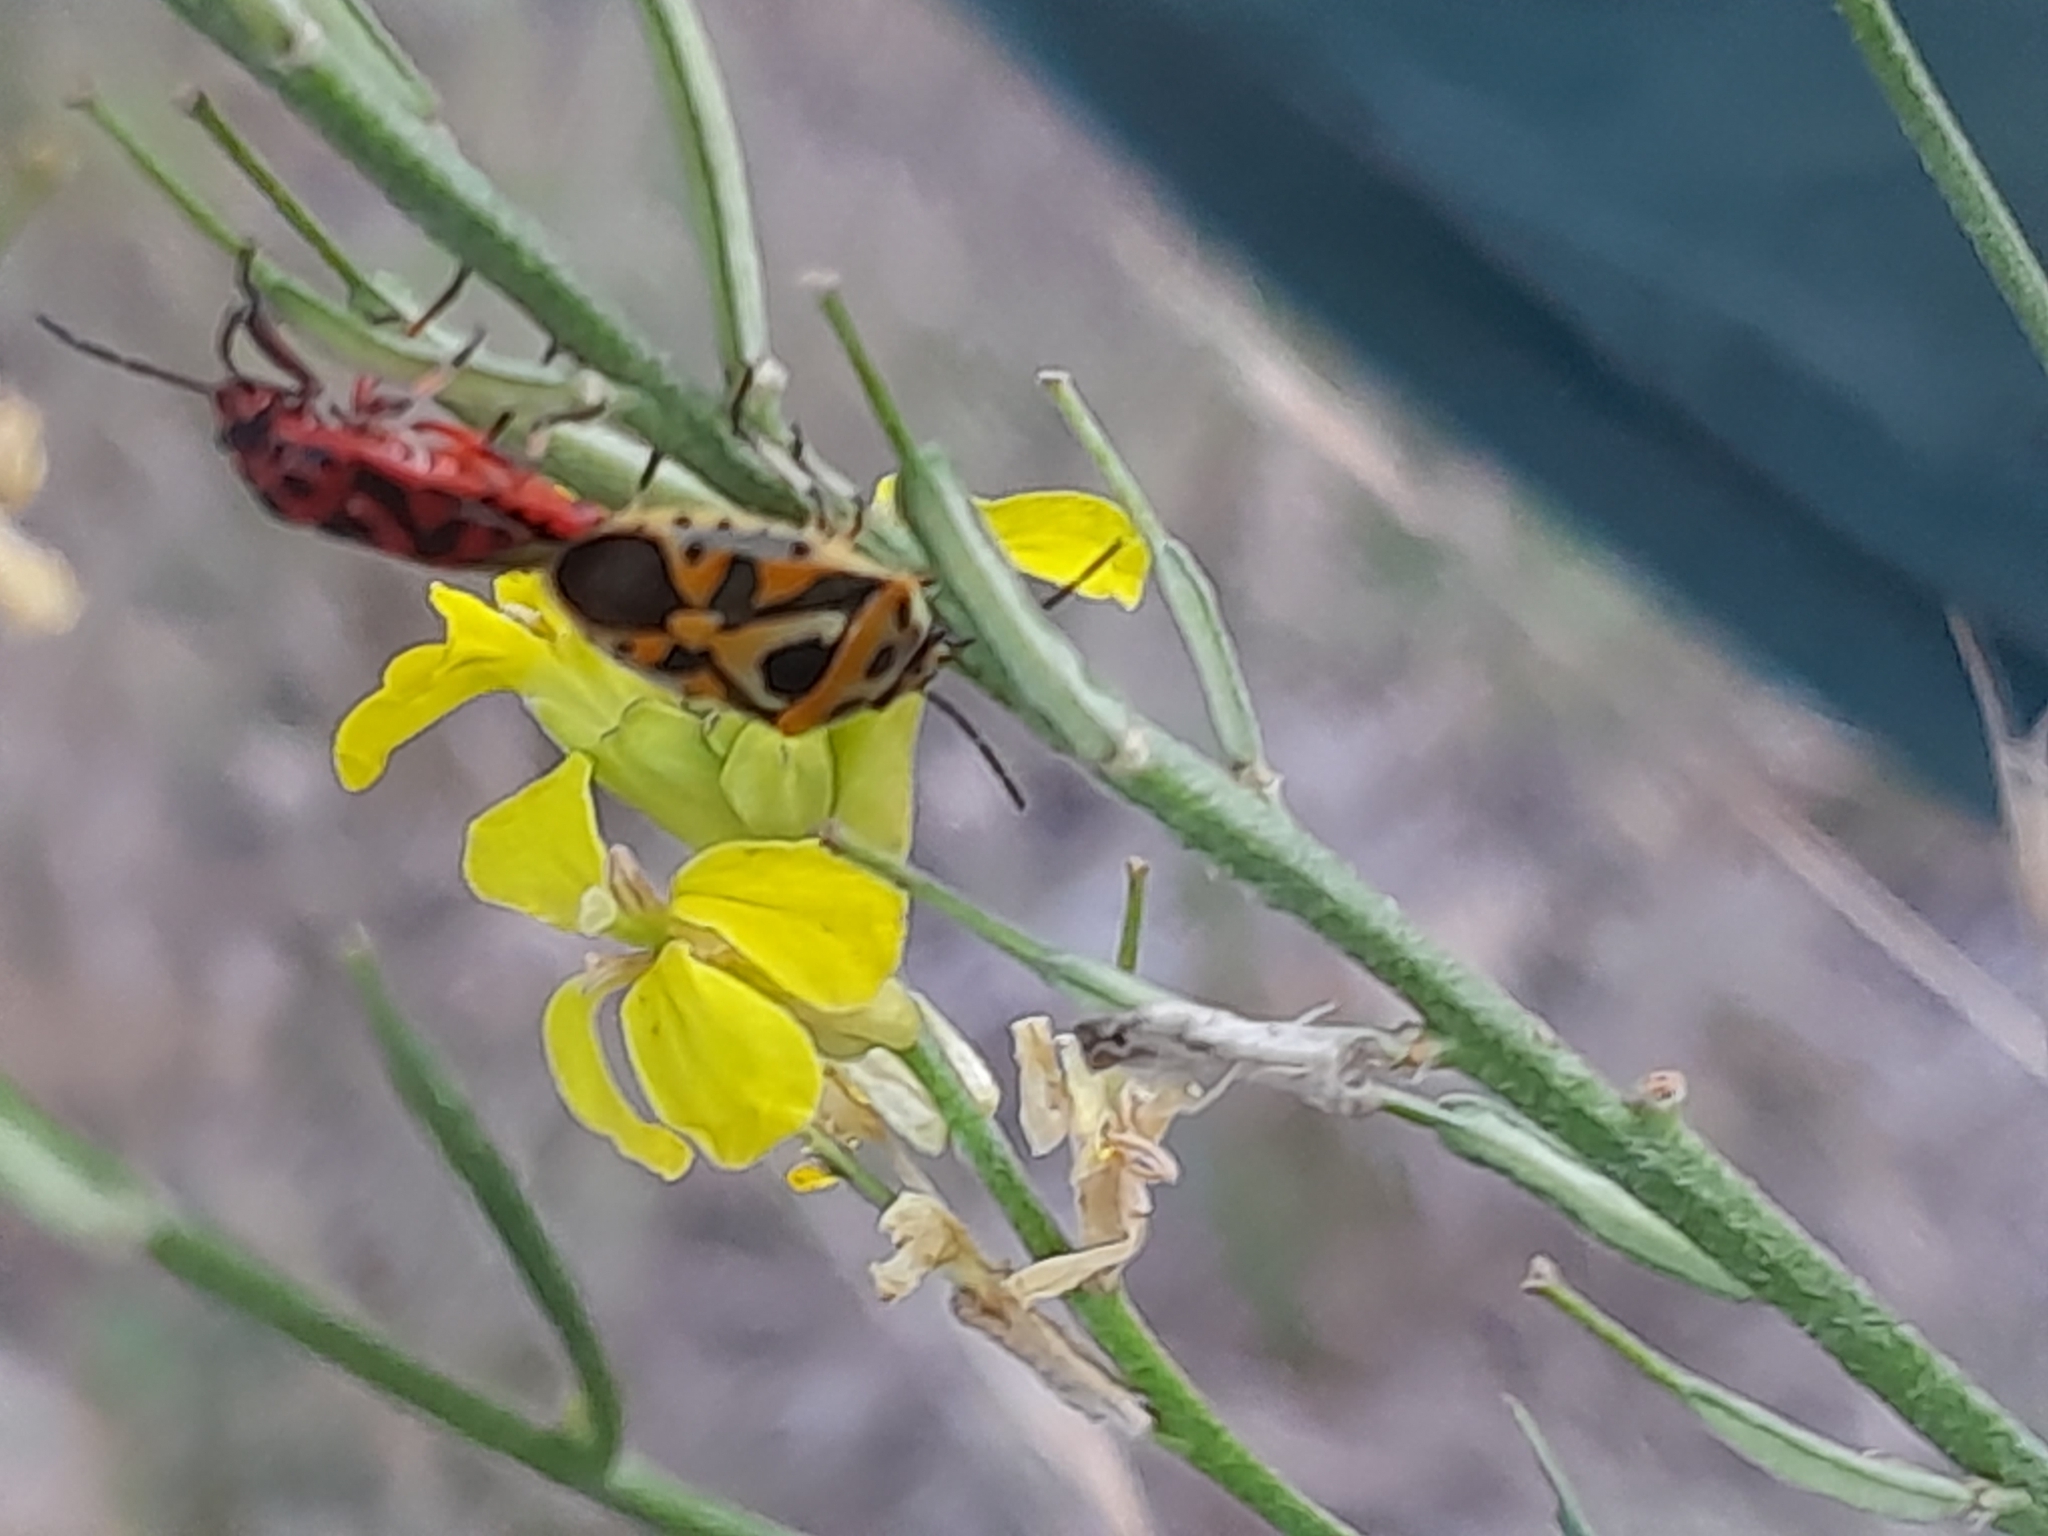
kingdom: Animalia
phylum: Arthropoda
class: Insecta
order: Hemiptera
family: Pentatomidae
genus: Eurydema
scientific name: Eurydema ornata
